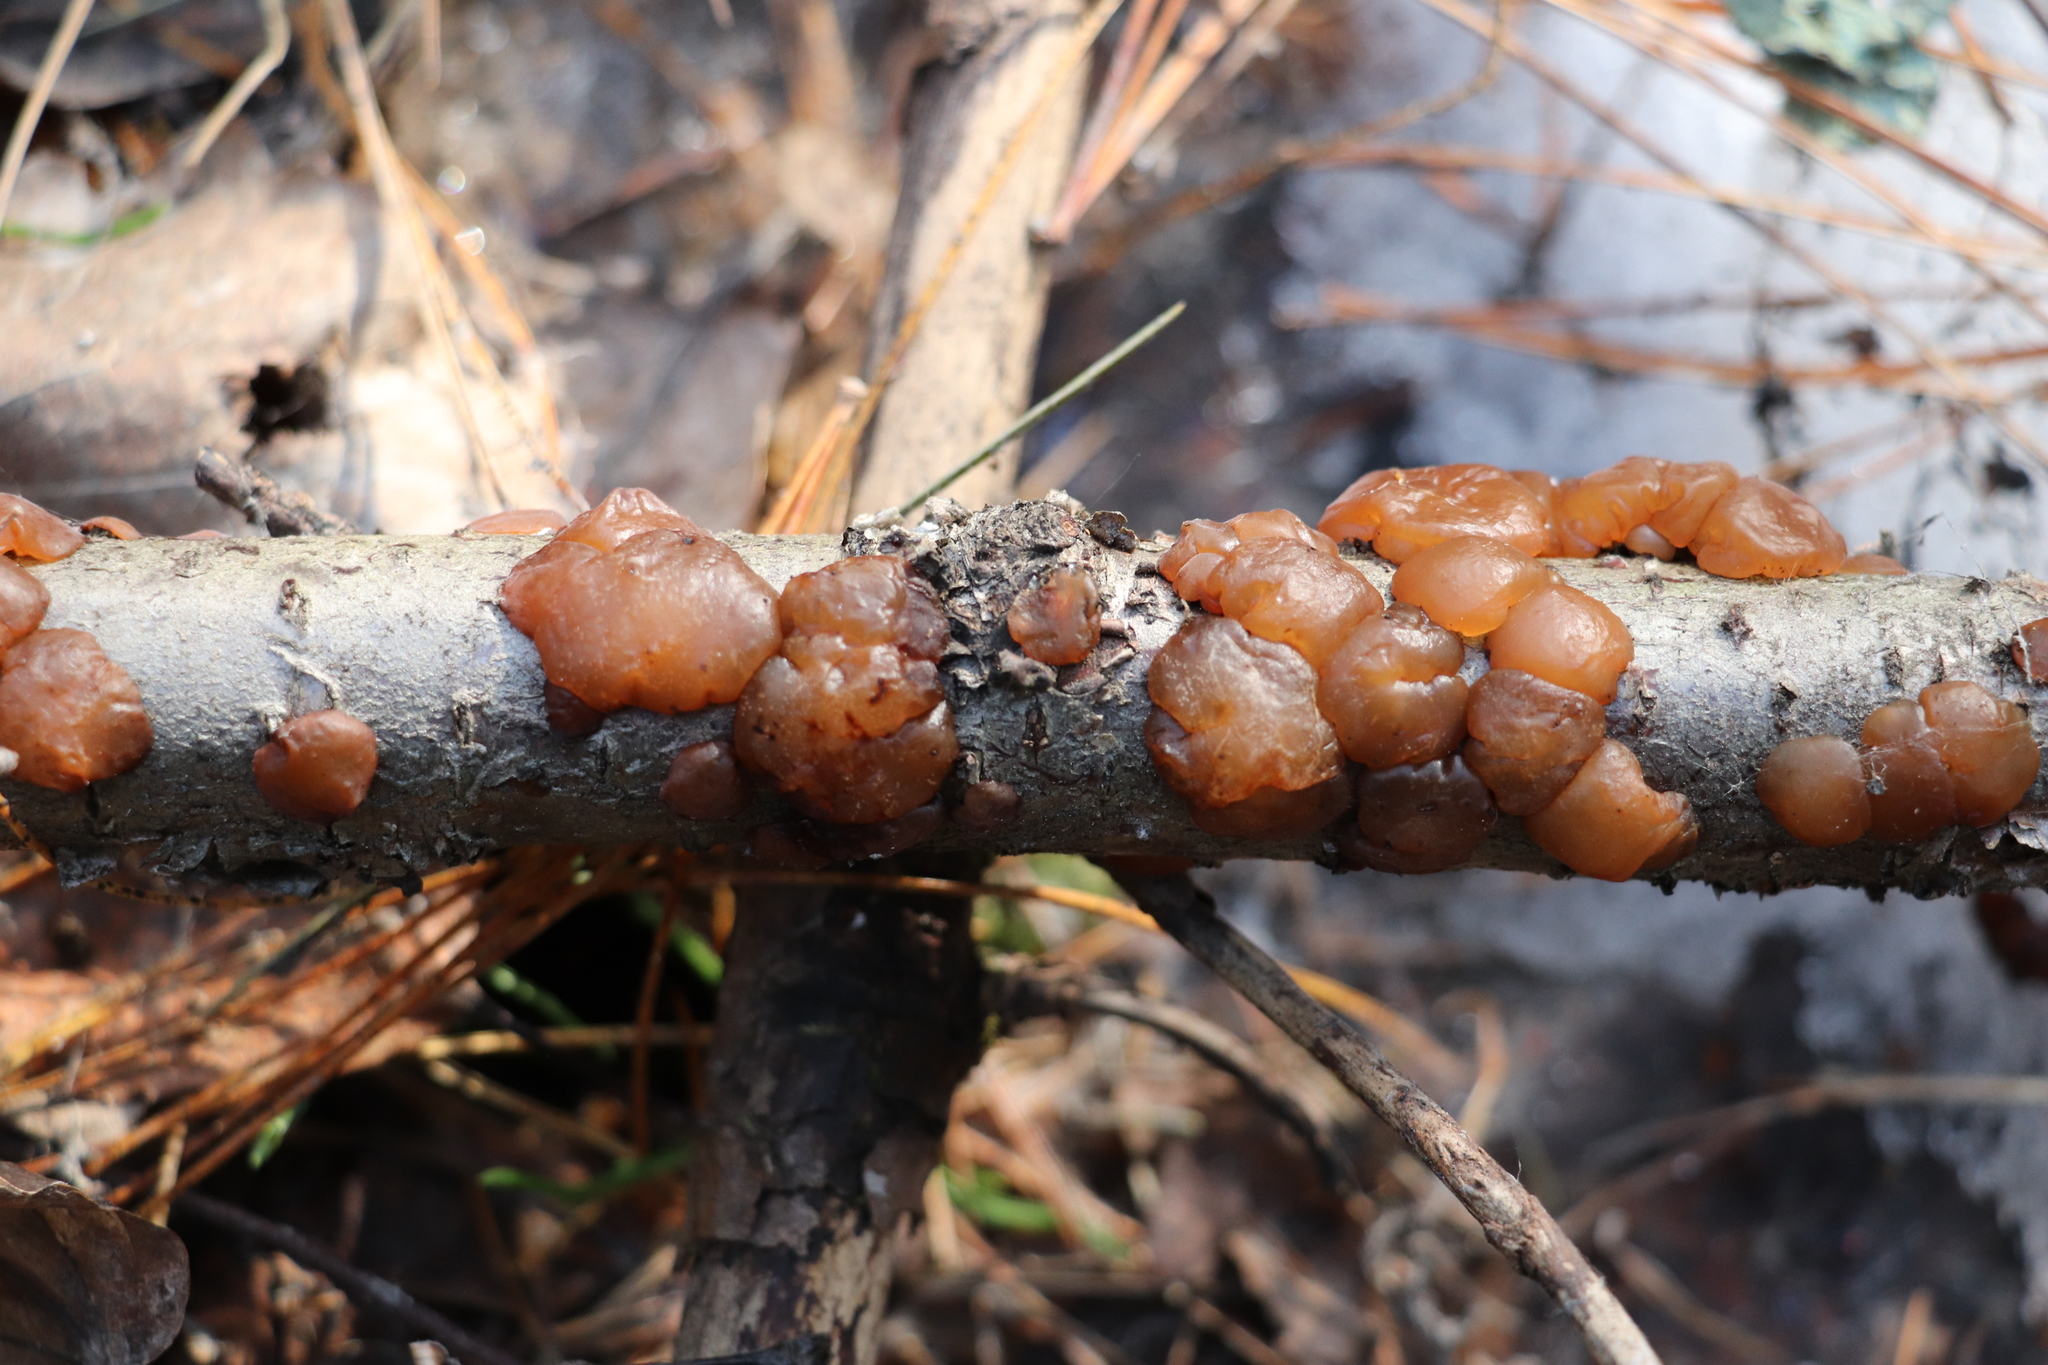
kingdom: Fungi
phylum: Basidiomycota
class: Agaricomycetes
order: Auriculariales
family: Auriculariaceae
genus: Exidia
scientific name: Exidia repanda
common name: Birch jelly
